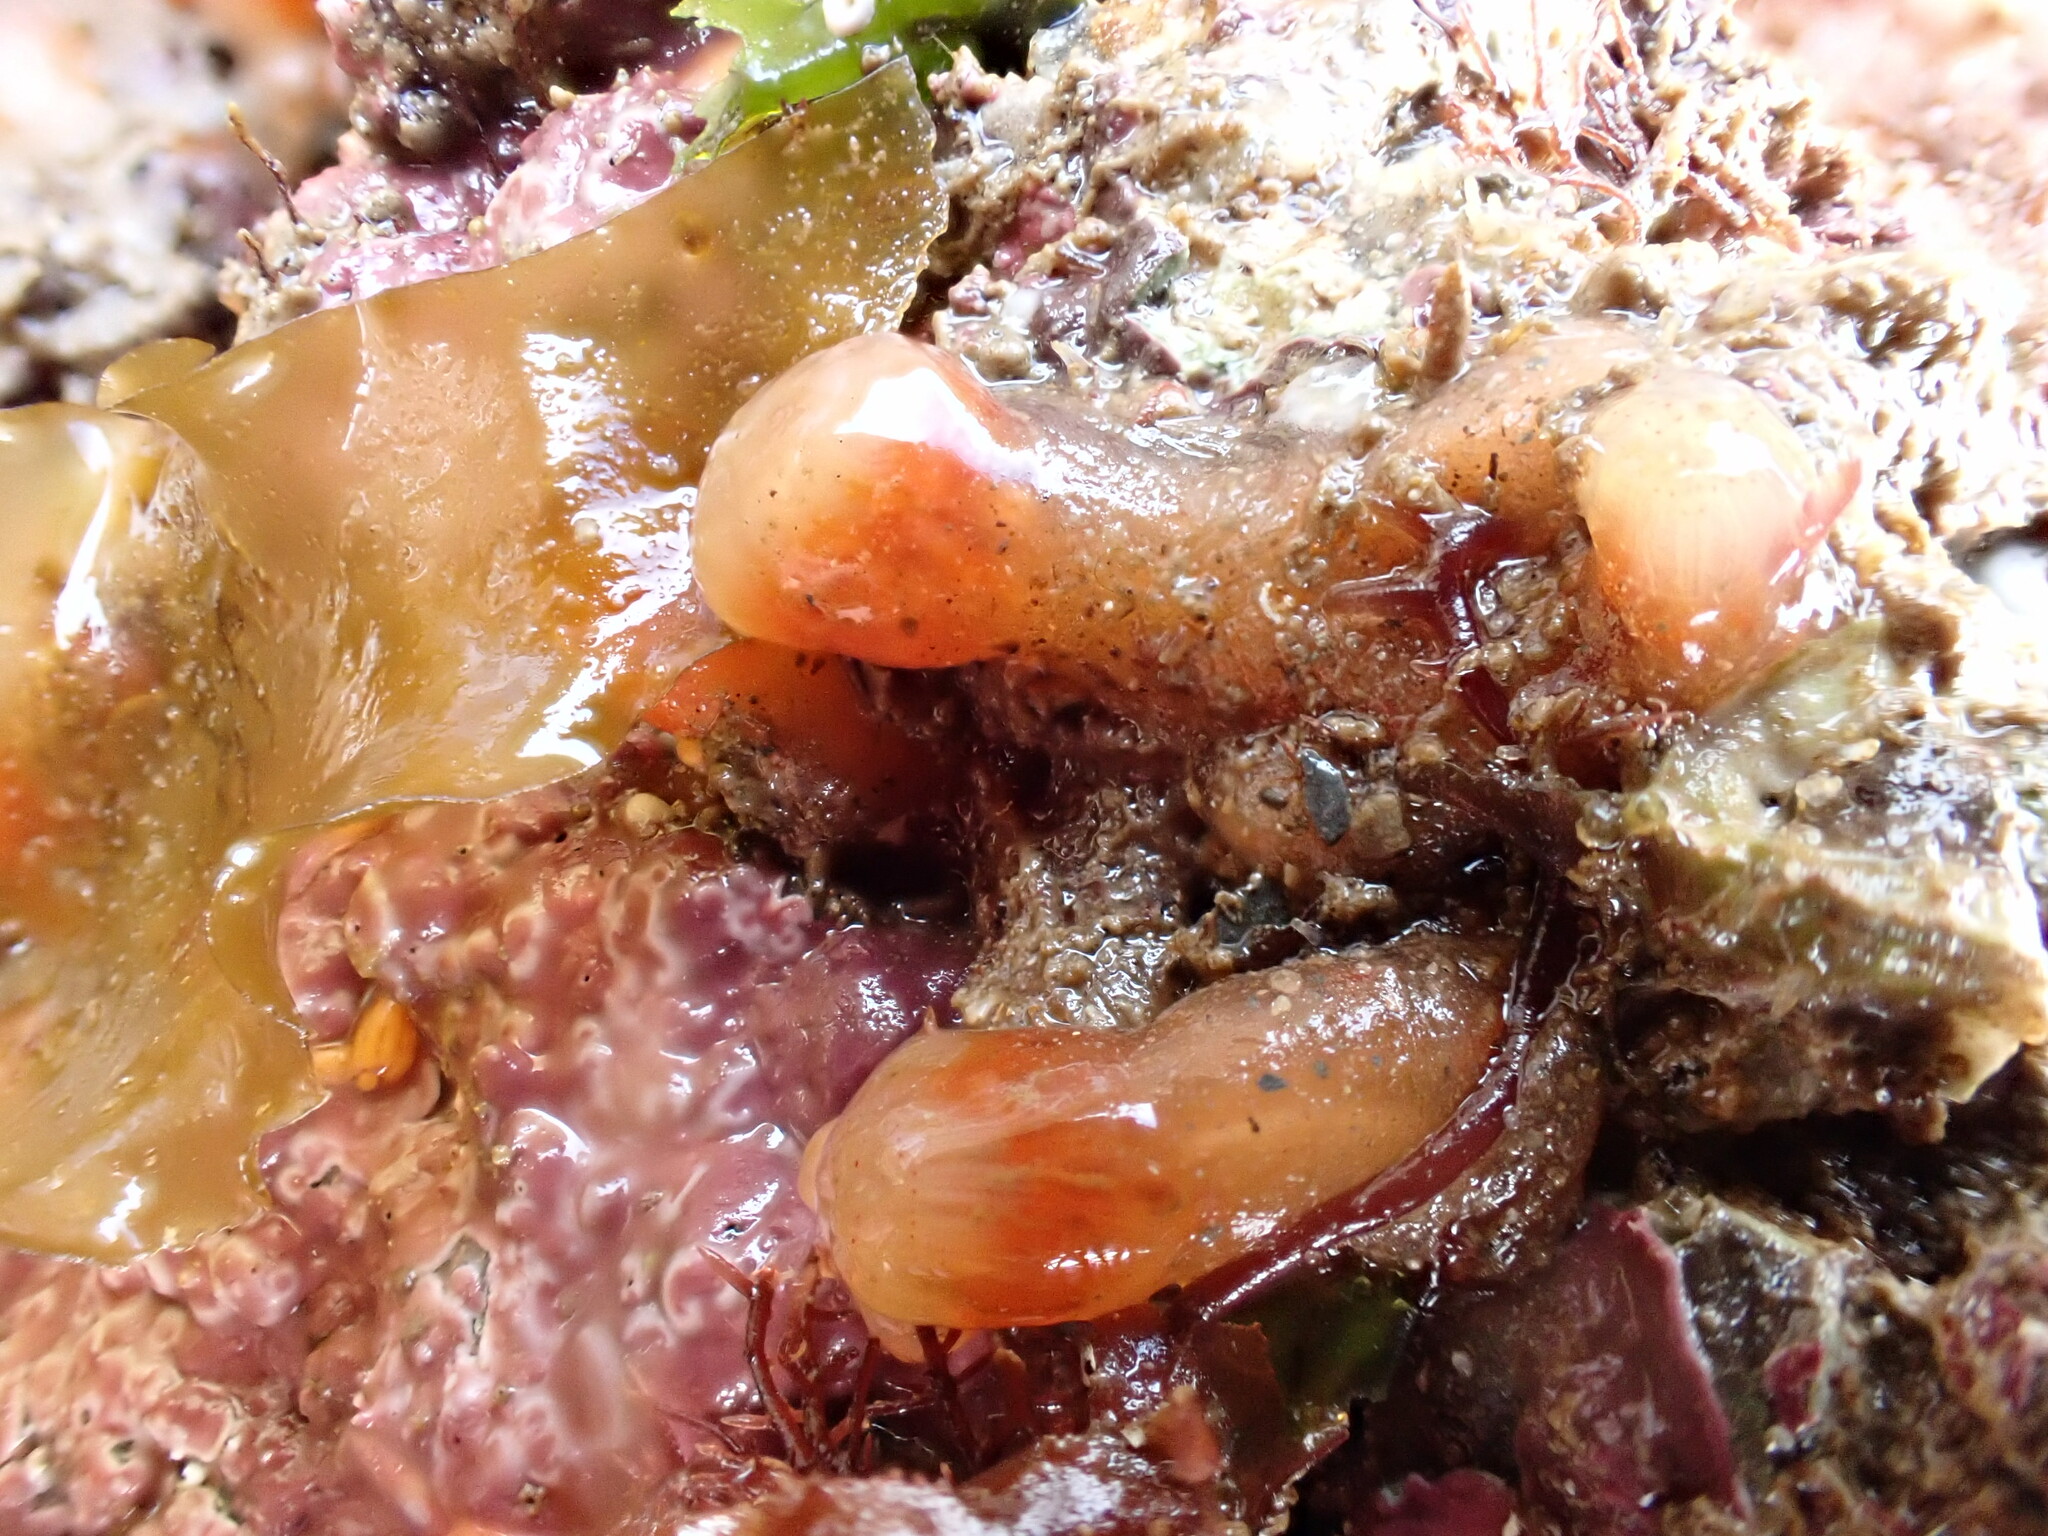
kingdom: Animalia
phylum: Chordata
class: Ascidiacea
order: Aplousobranchia
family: Polyclinidae
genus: Morchellium
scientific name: Morchellium argus
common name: Colonial sesquirt
